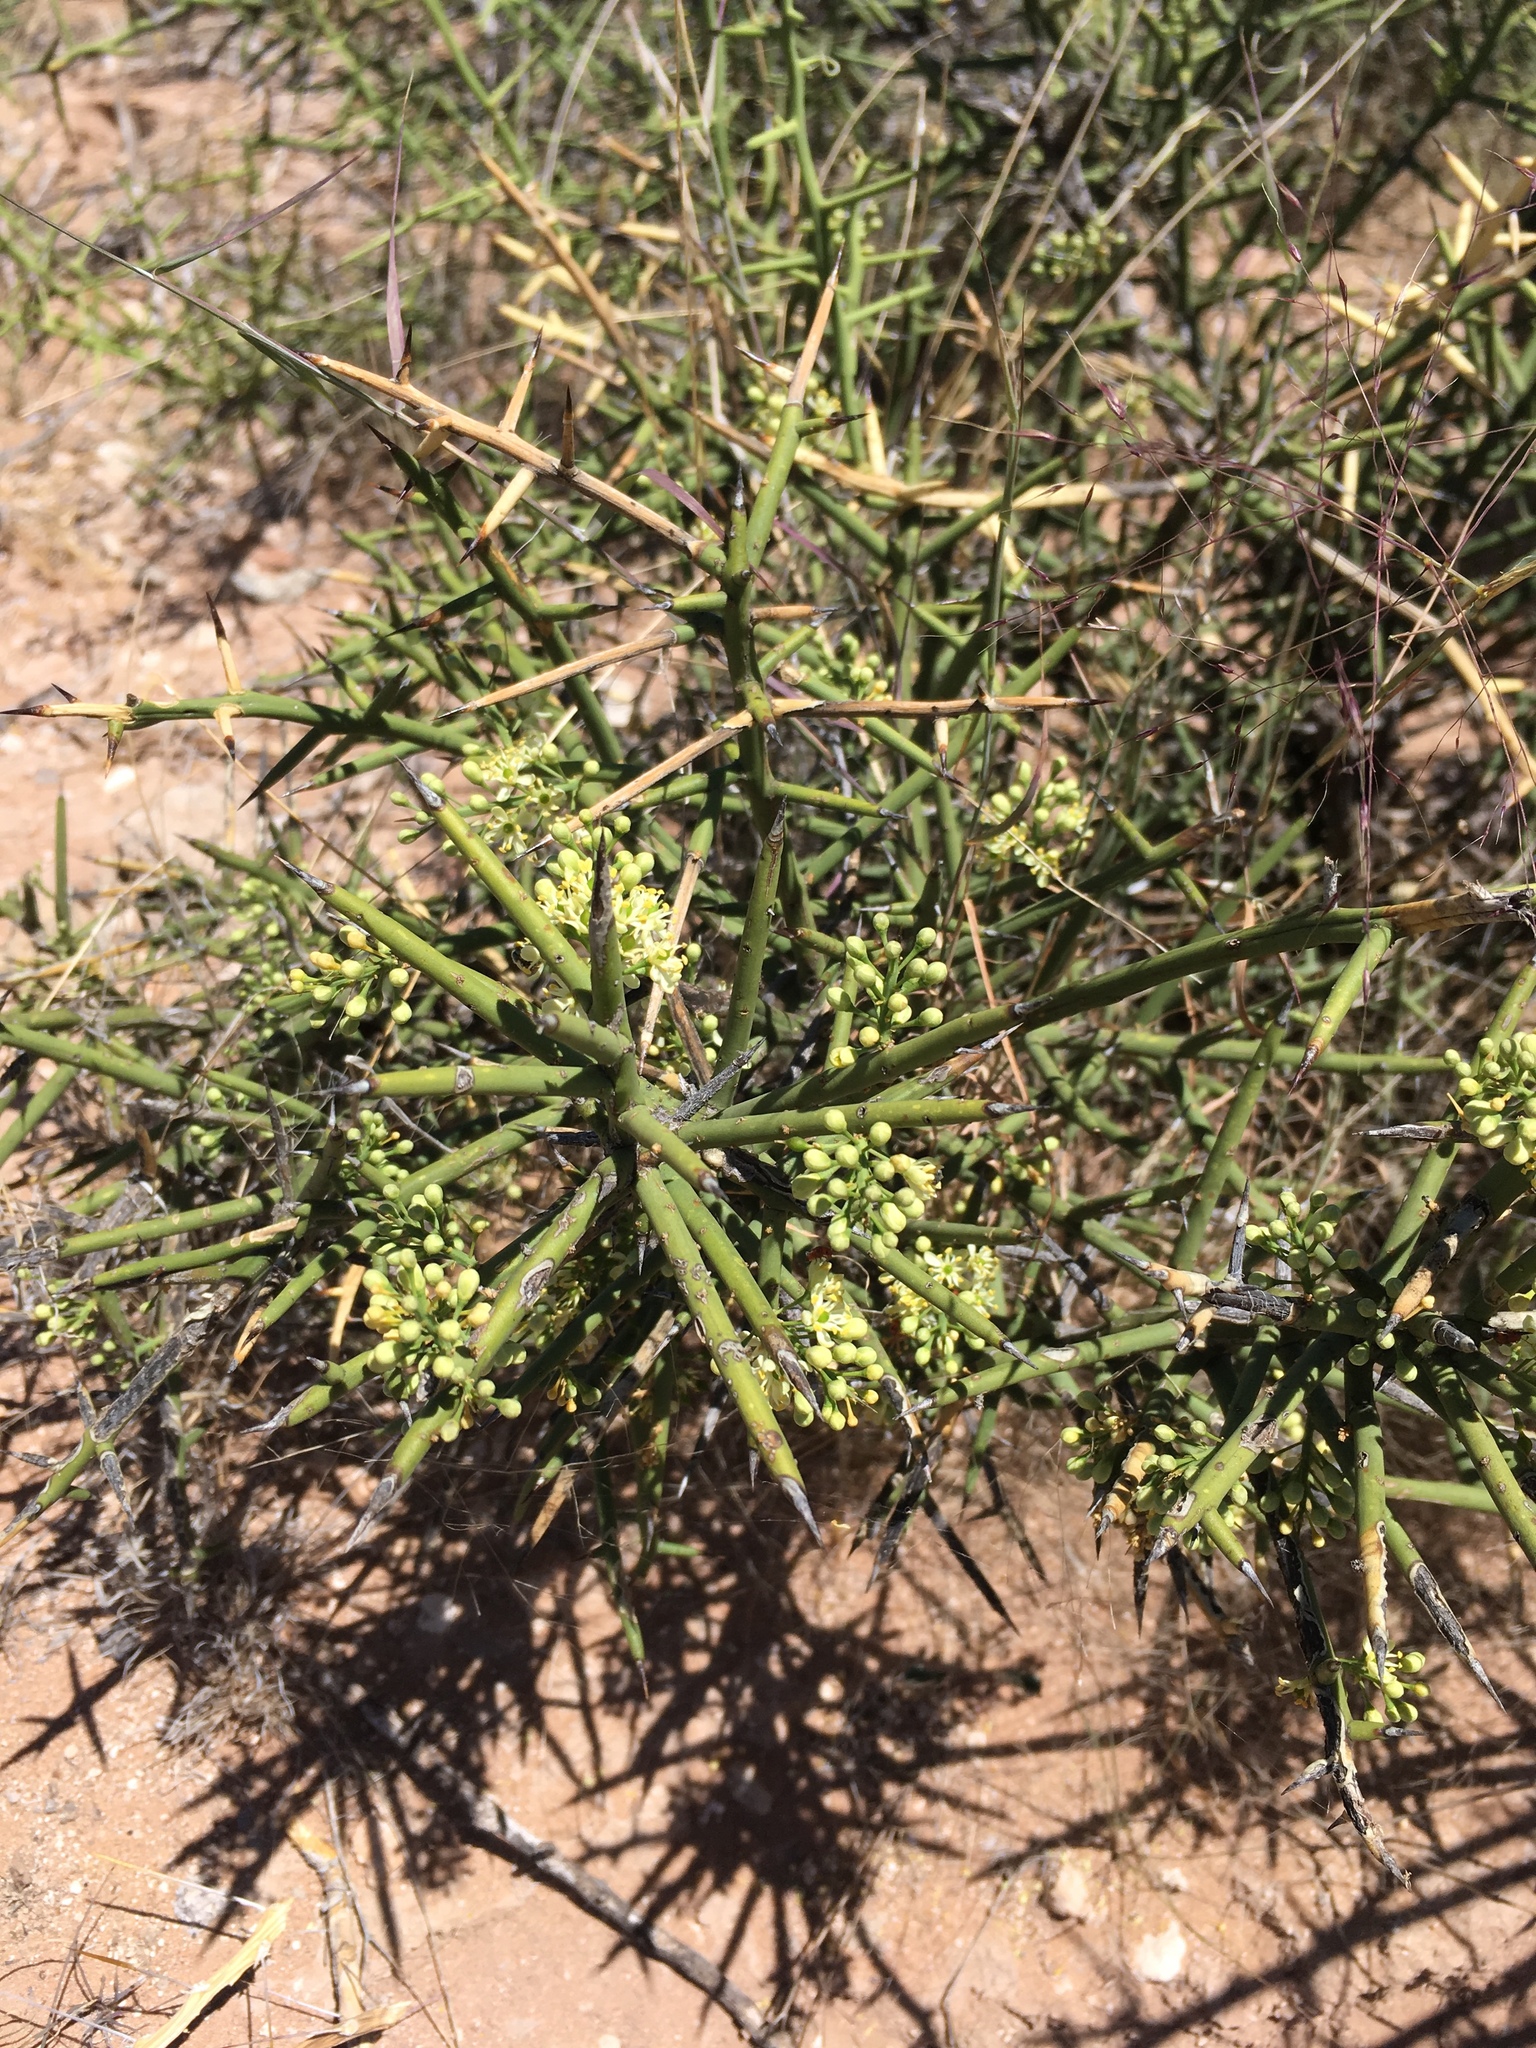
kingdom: Plantae
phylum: Tracheophyta
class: Magnoliopsida
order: Brassicales
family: Koeberliniaceae
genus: Koeberlinia
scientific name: Koeberlinia spinosa
